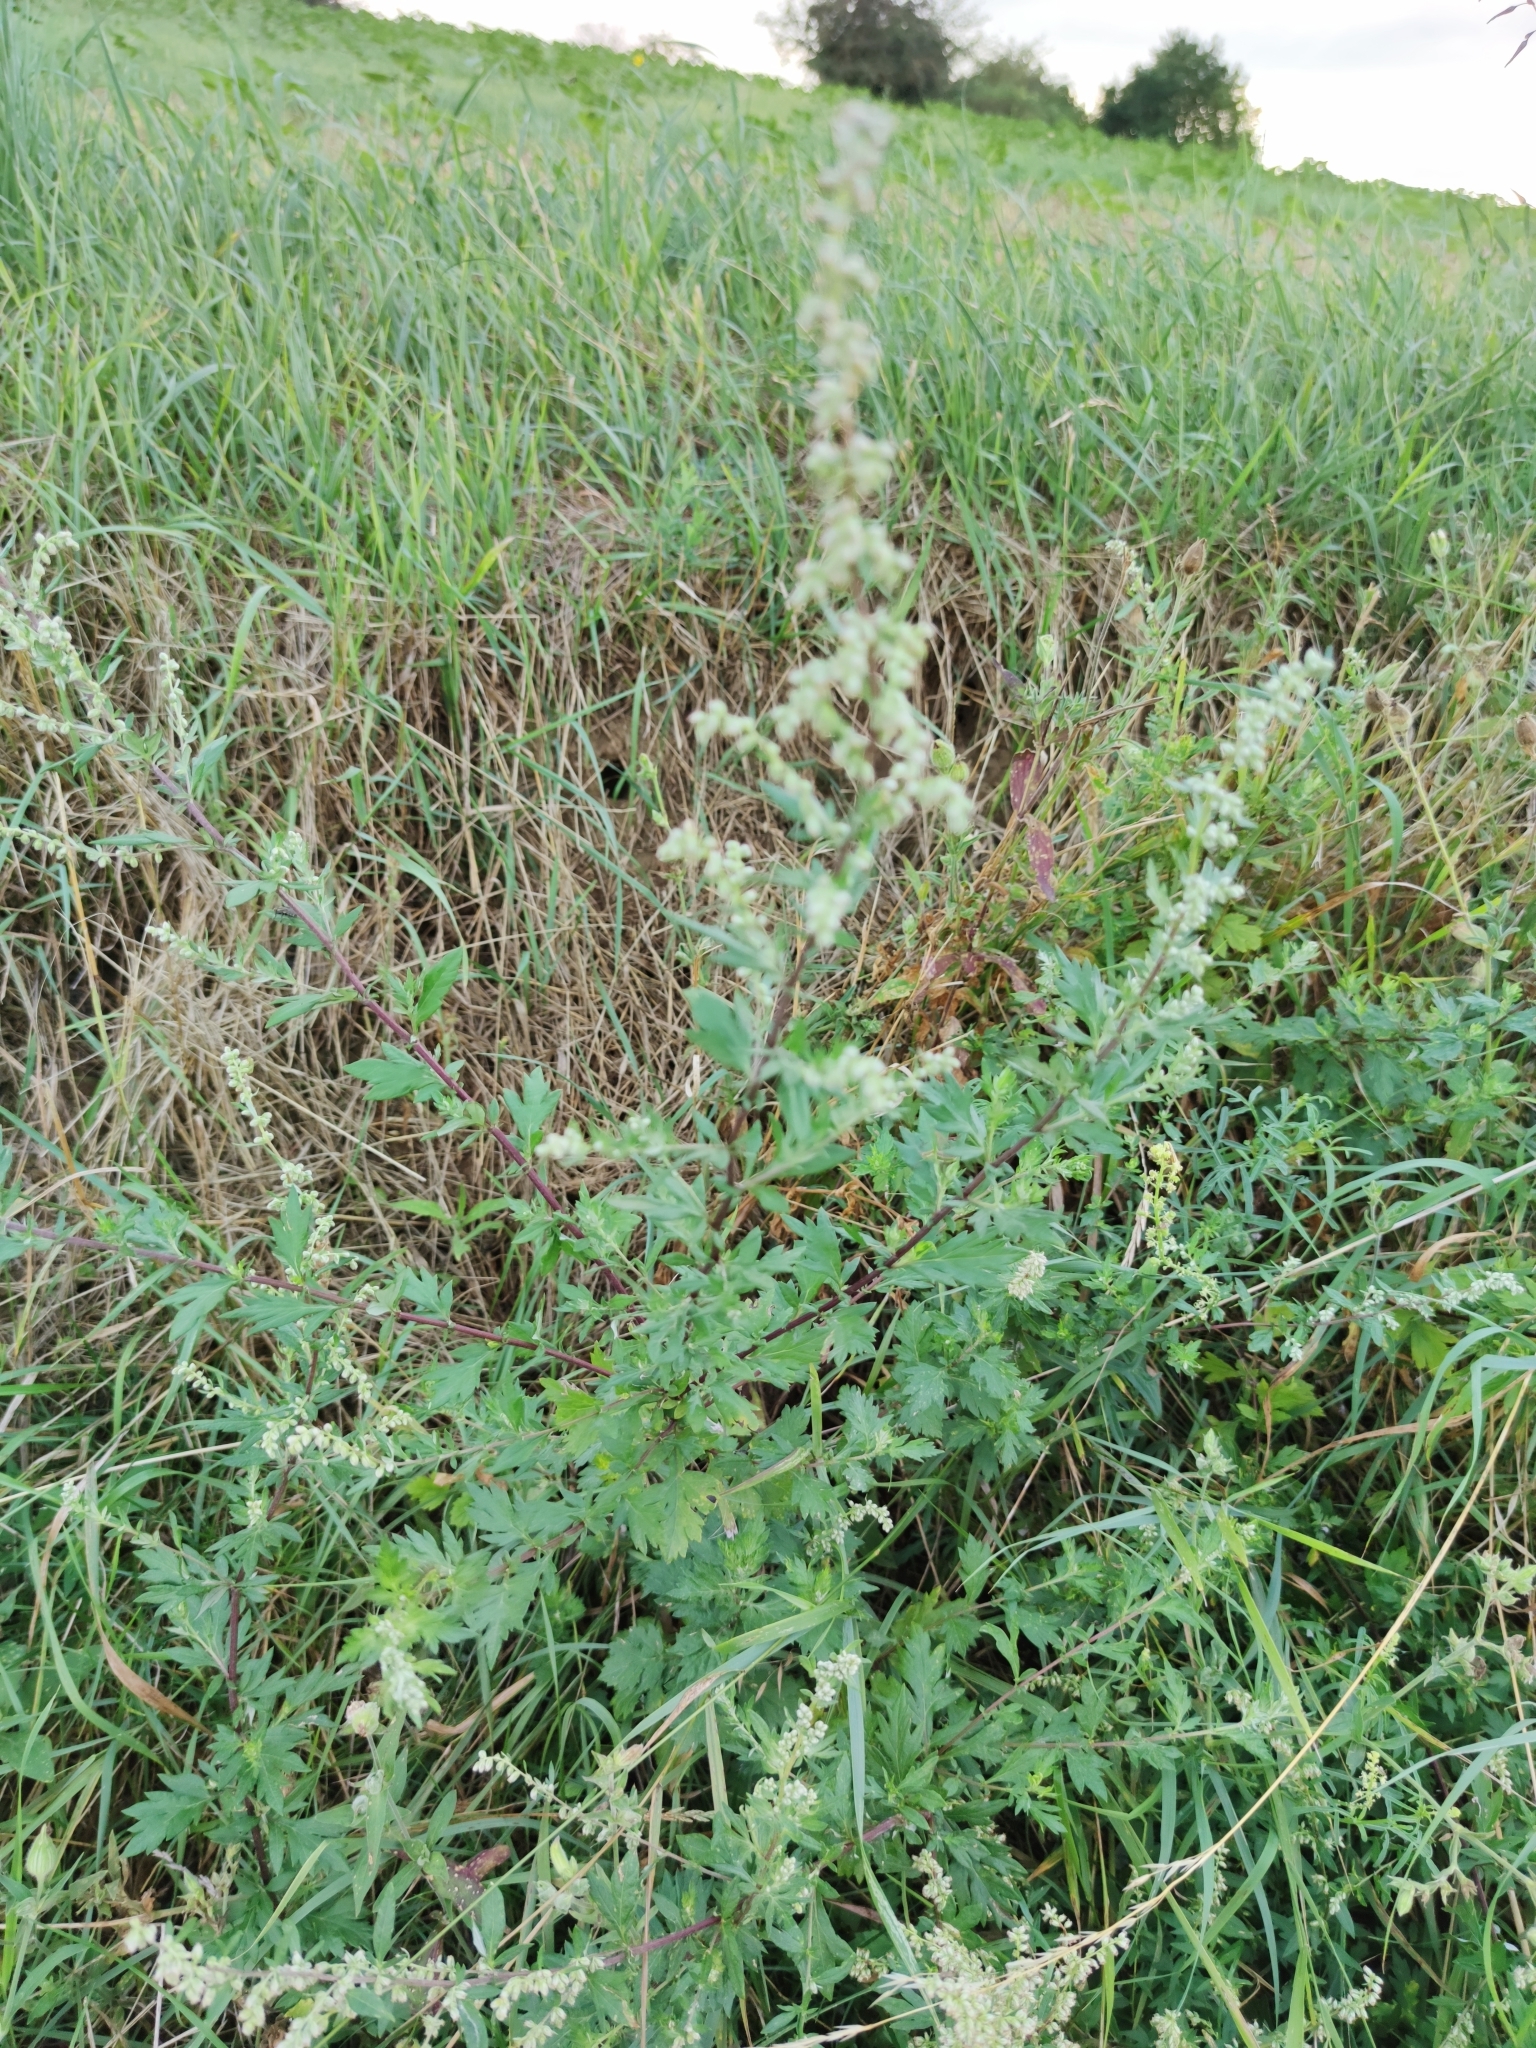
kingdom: Plantae
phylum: Tracheophyta
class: Magnoliopsida
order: Asterales
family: Asteraceae
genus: Artemisia
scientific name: Artemisia vulgaris
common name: Mugwort
